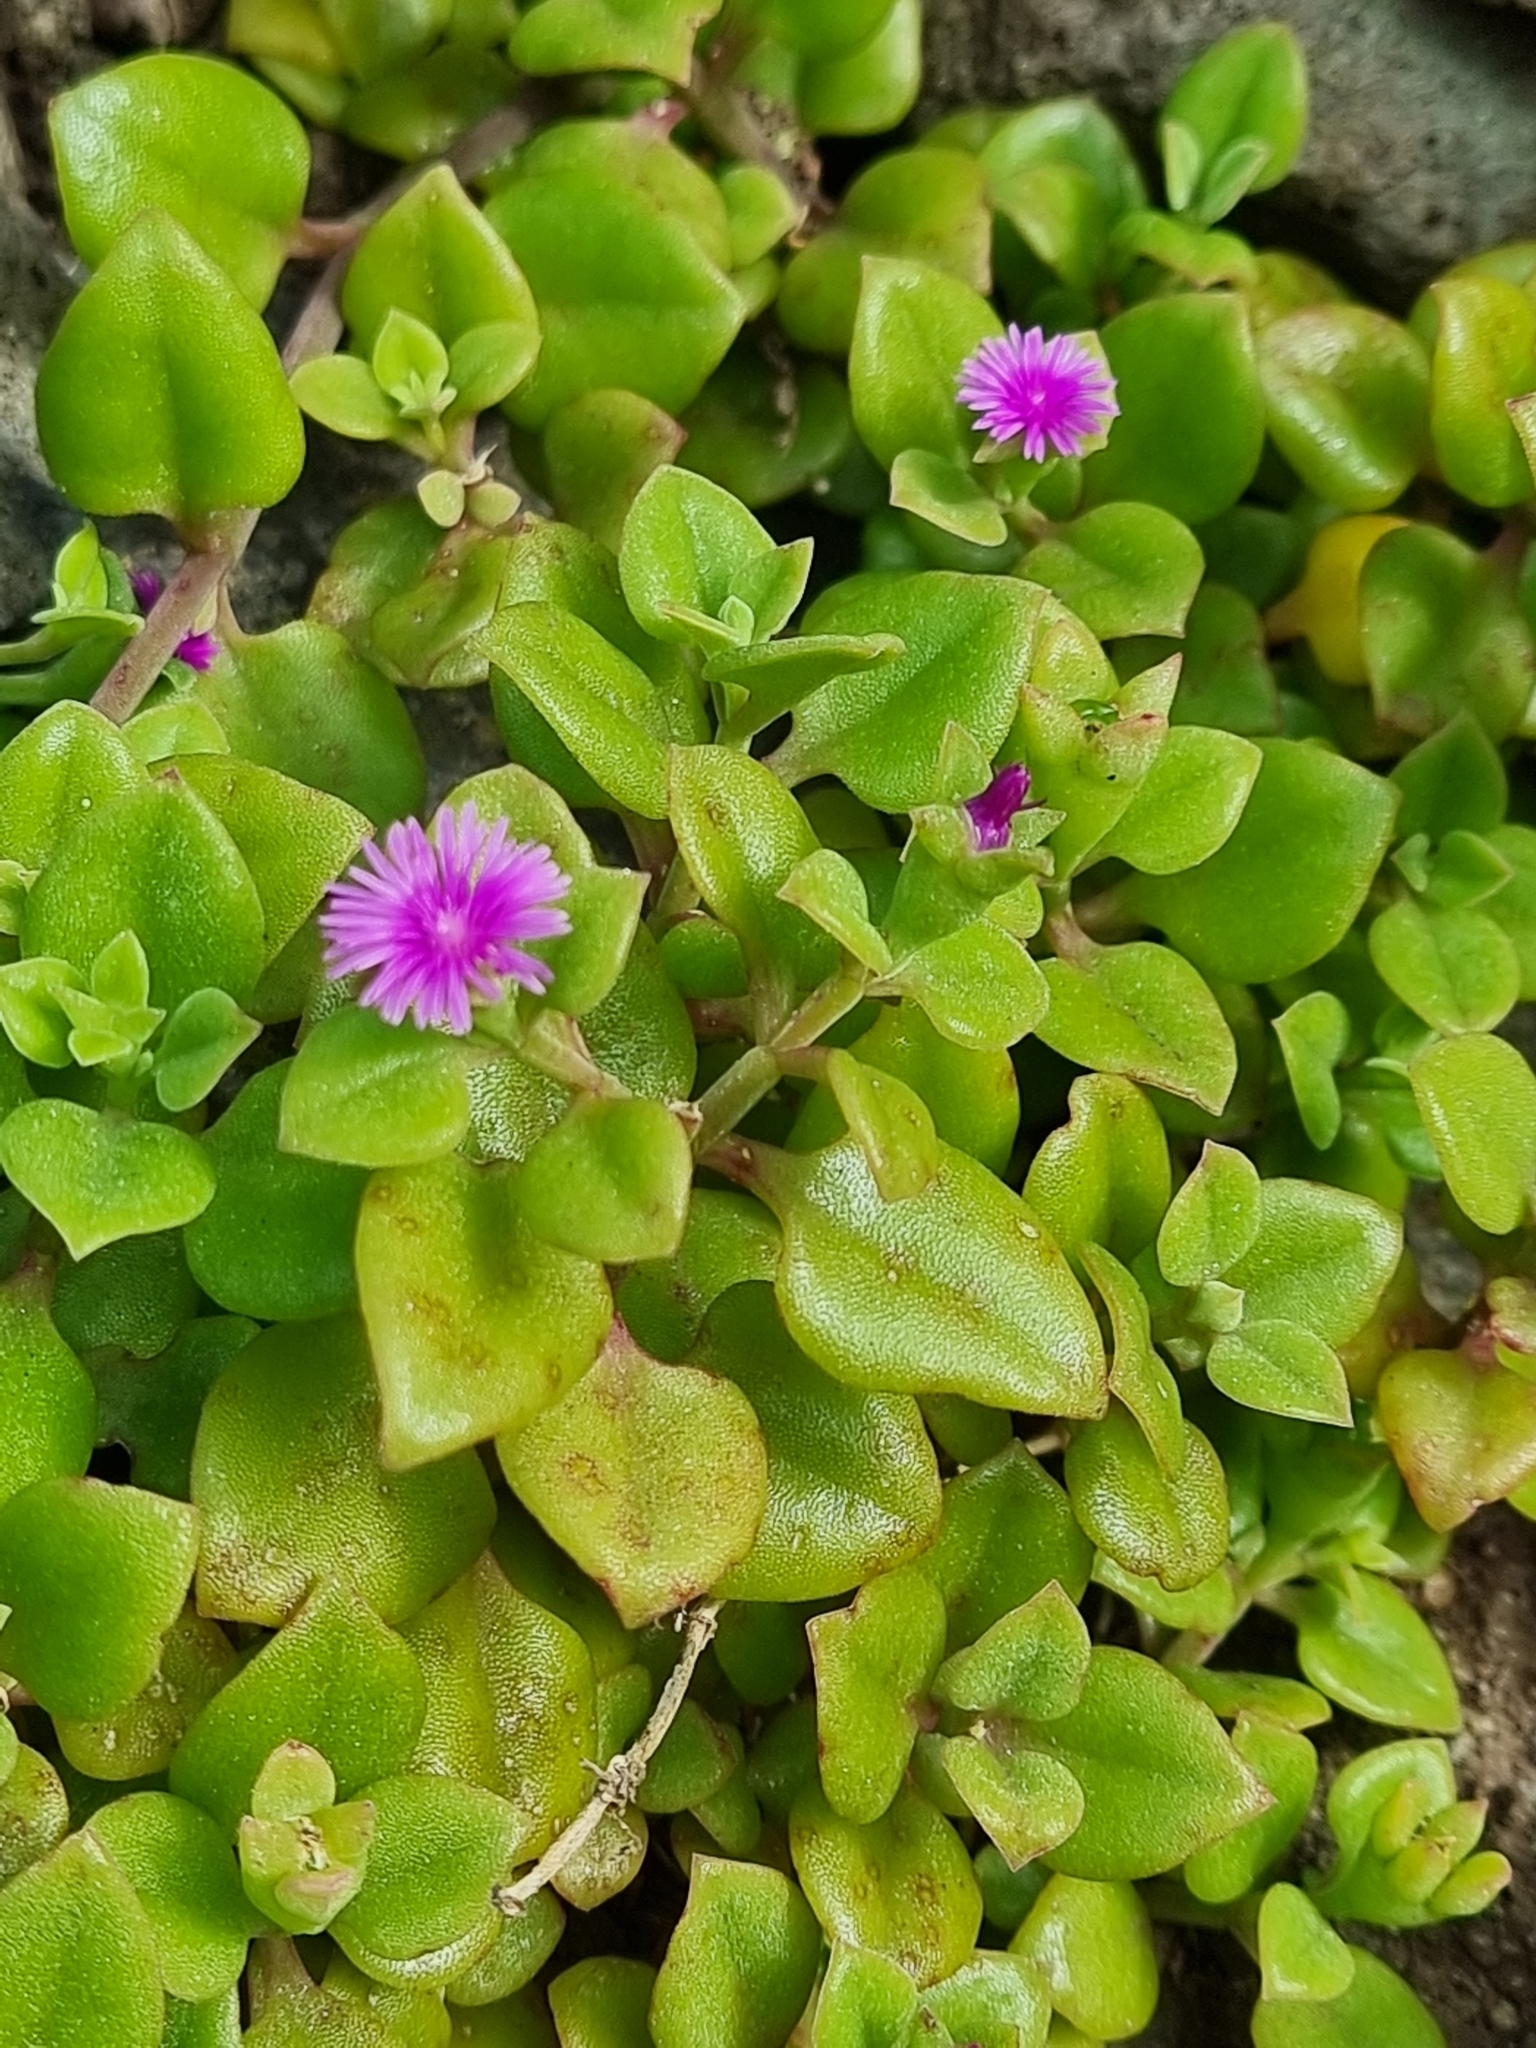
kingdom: Plantae
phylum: Tracheophyta
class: Magnoliopsida
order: Caryophyllales
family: Aizoaceae
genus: Mesembryanthemum
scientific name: Mesembryanthemum cordifolium
